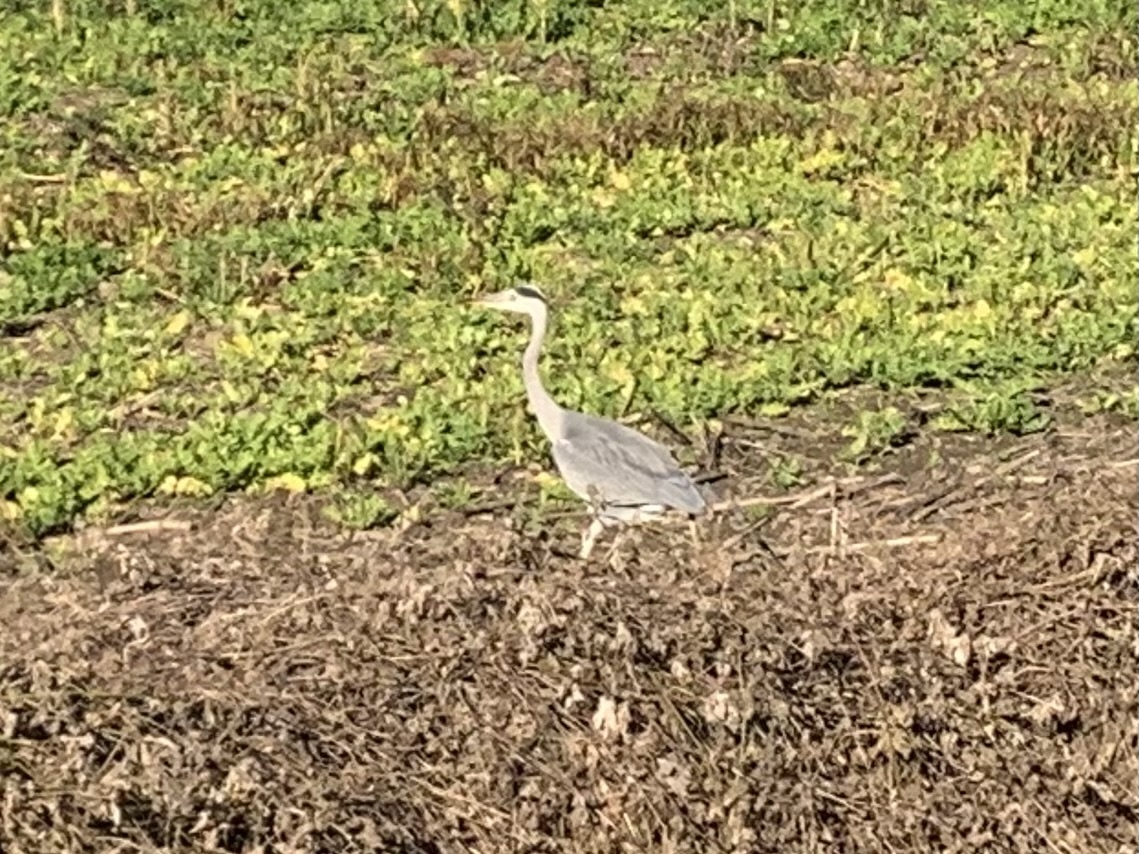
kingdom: Animalia
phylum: Chordata
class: Aves
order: Pelecaniformes
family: Ardeidae
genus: Ardea
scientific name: Ardea cinerea
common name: Grey heron
